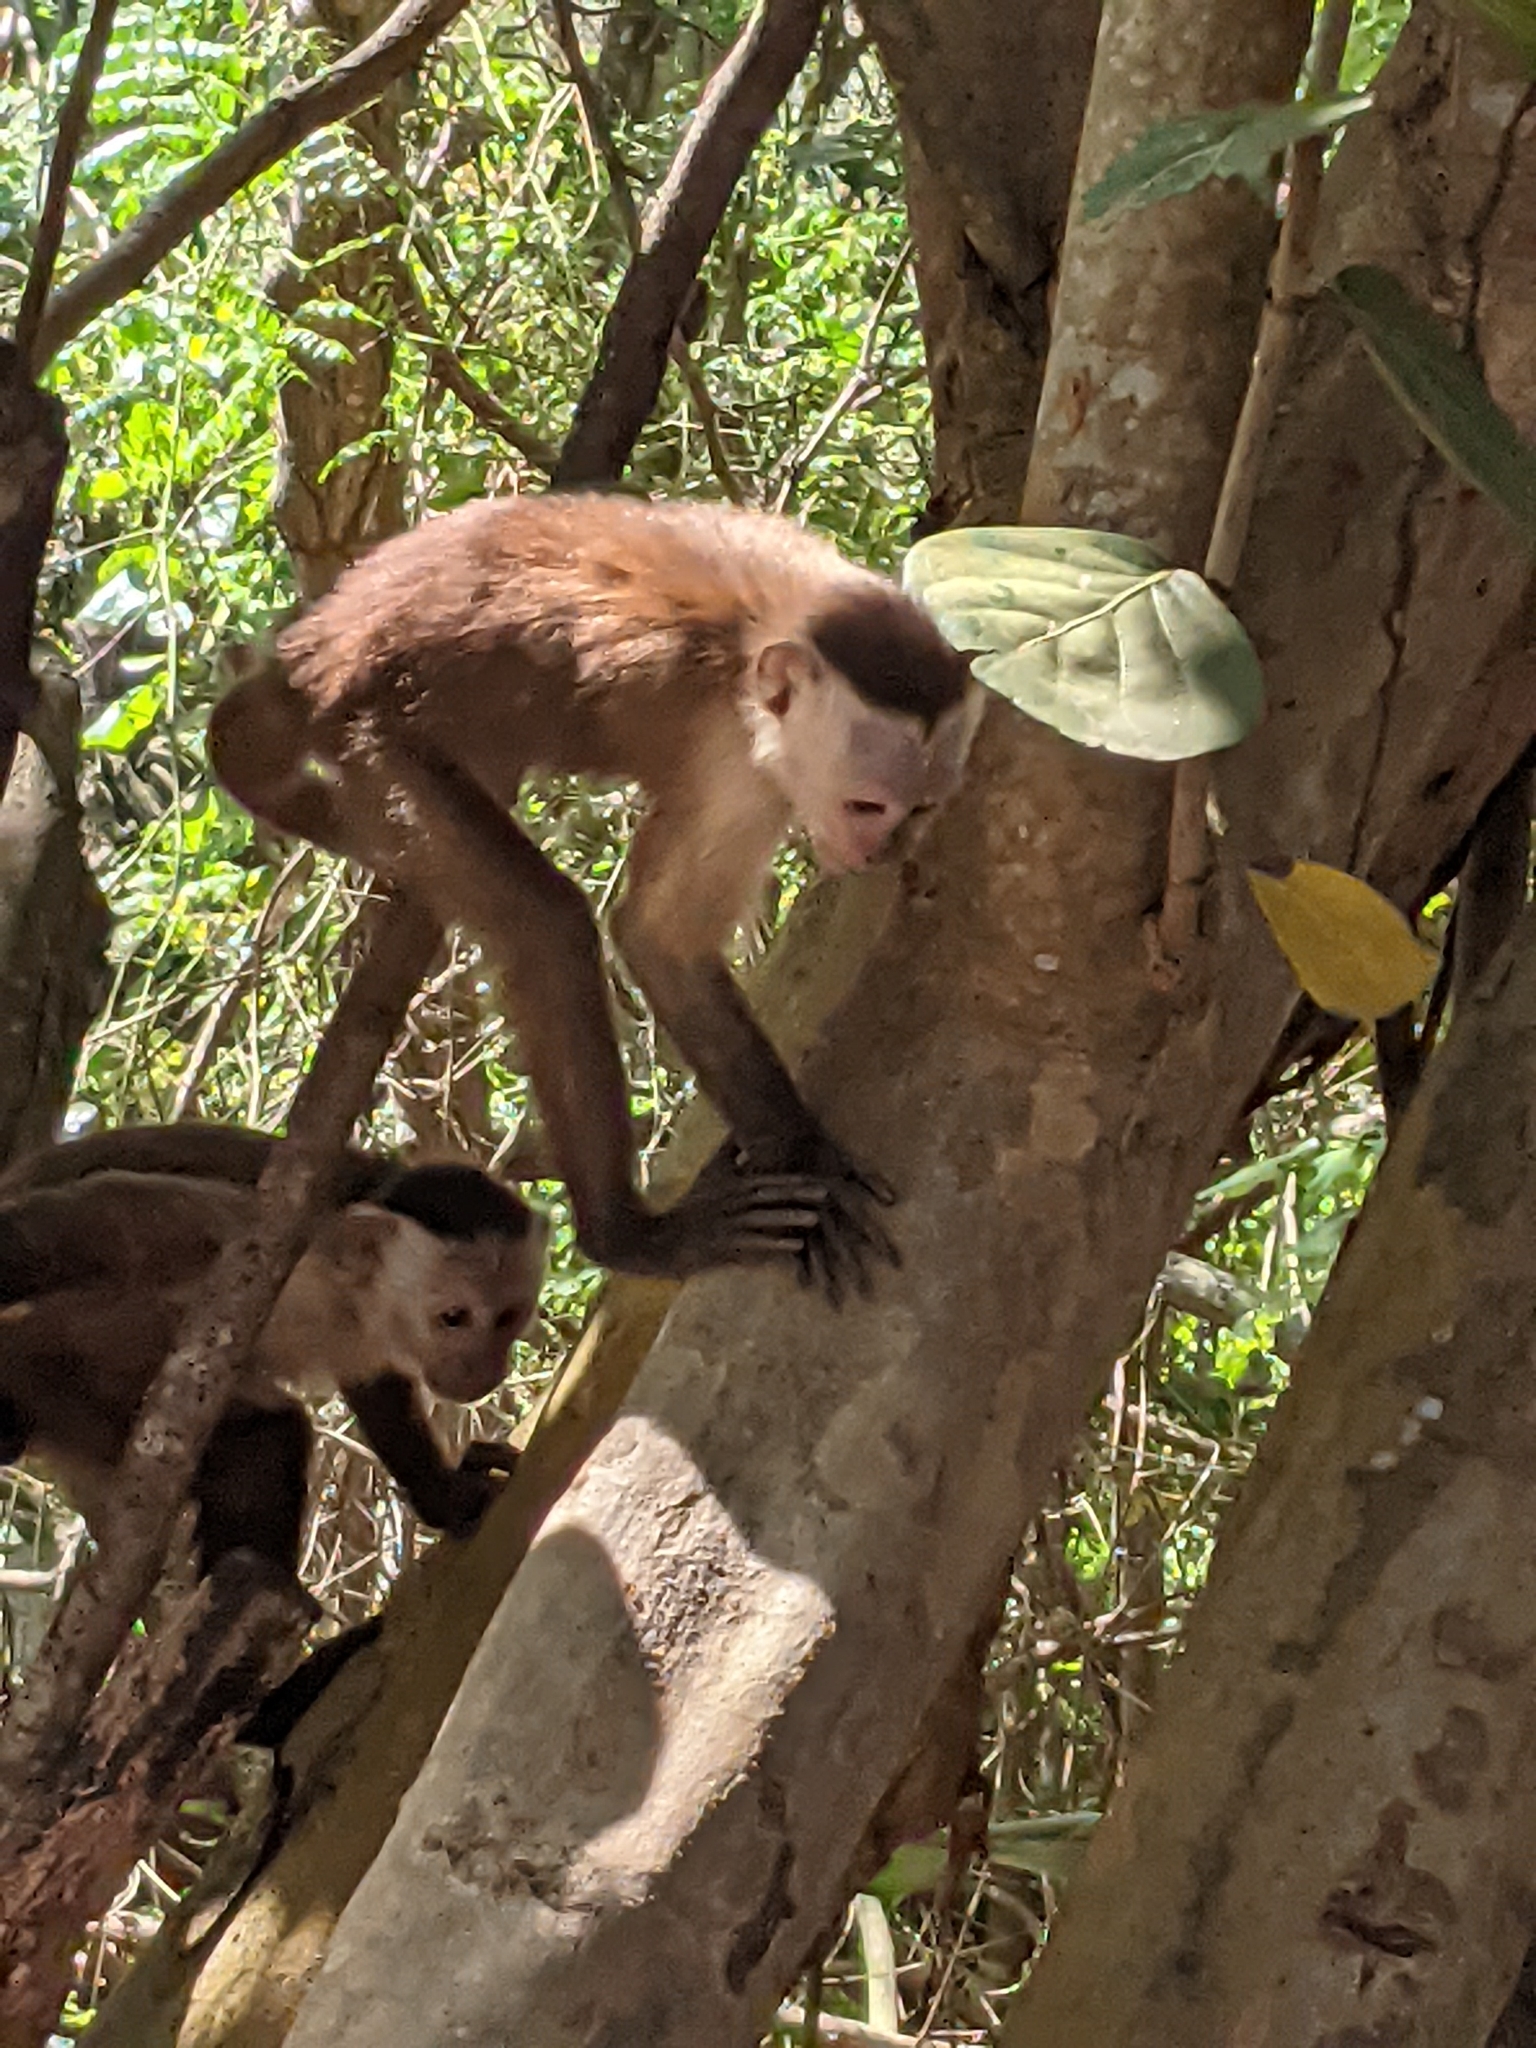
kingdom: Animalia
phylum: Chordata
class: Mammalia
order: Primates
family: Cebidae
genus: Cebus
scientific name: Cebus malitiosus
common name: Santa marta white-fronted capuchin
